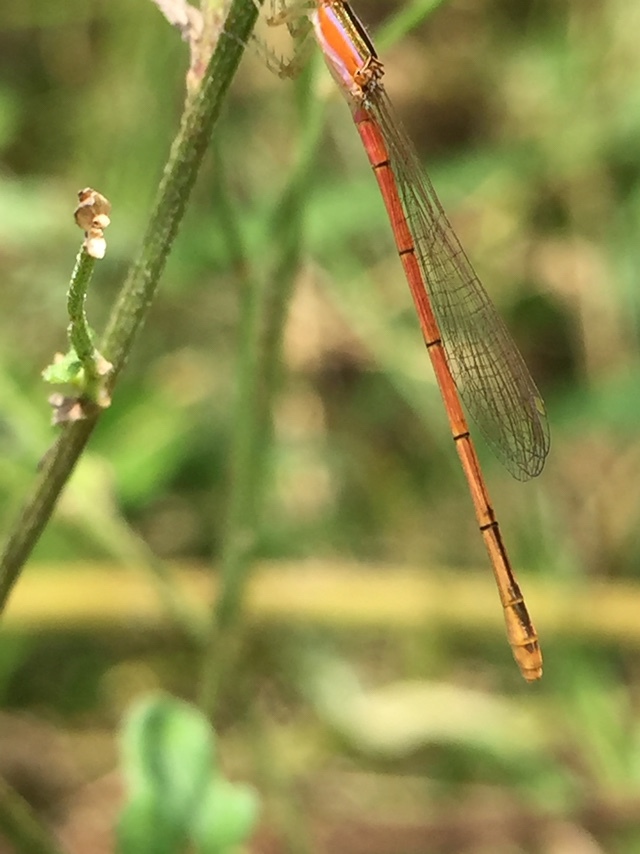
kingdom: Animalia
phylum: Arthropoda
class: Insecta
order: Odonata
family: Coenagrionidae
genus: Agriocnemis
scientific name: Agriocnemis pygmaea
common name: Pygmy wisp
